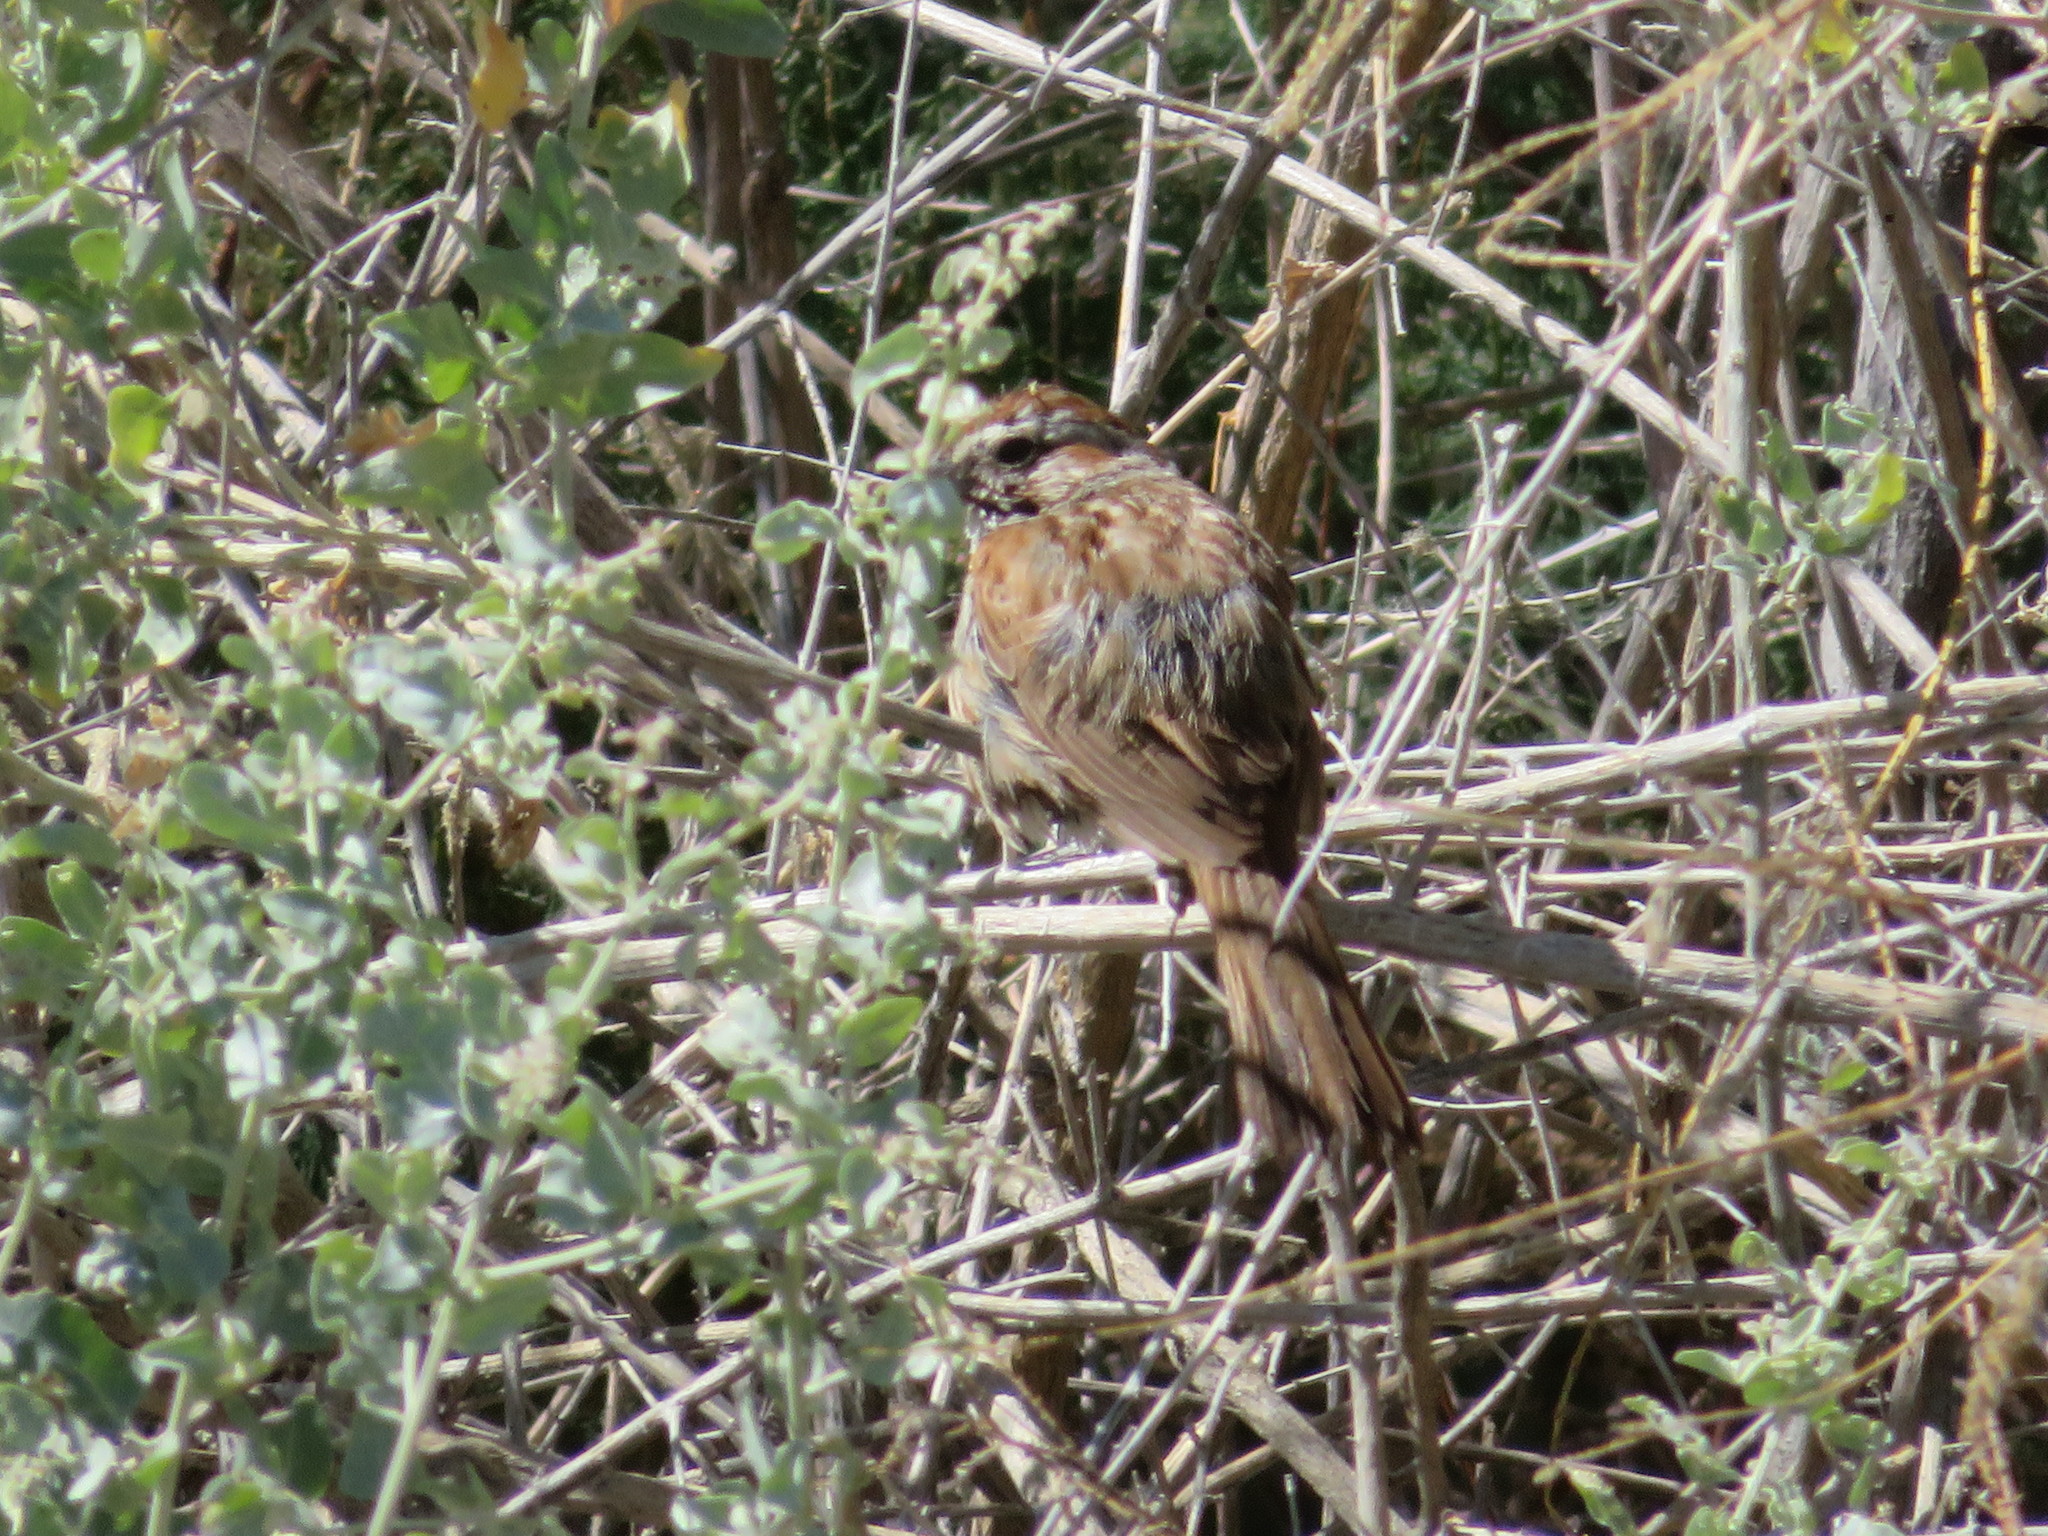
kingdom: Animalia
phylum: Chordata
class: Aves
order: Passeriformes
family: Passerellidae
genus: Melospiza
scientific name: Melospiza melodia
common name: Song sparrow
